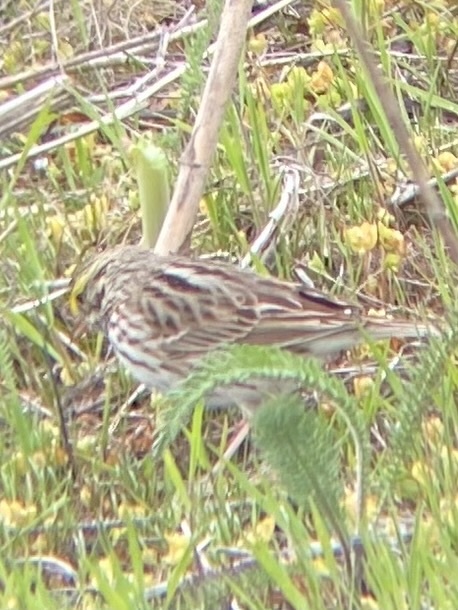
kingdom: Animalia
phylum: Chordata
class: Aves
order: Passeriformes
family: Passerellidae
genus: Passerculus
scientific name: Passerculus sandwichensis
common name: Savannah sparrow
